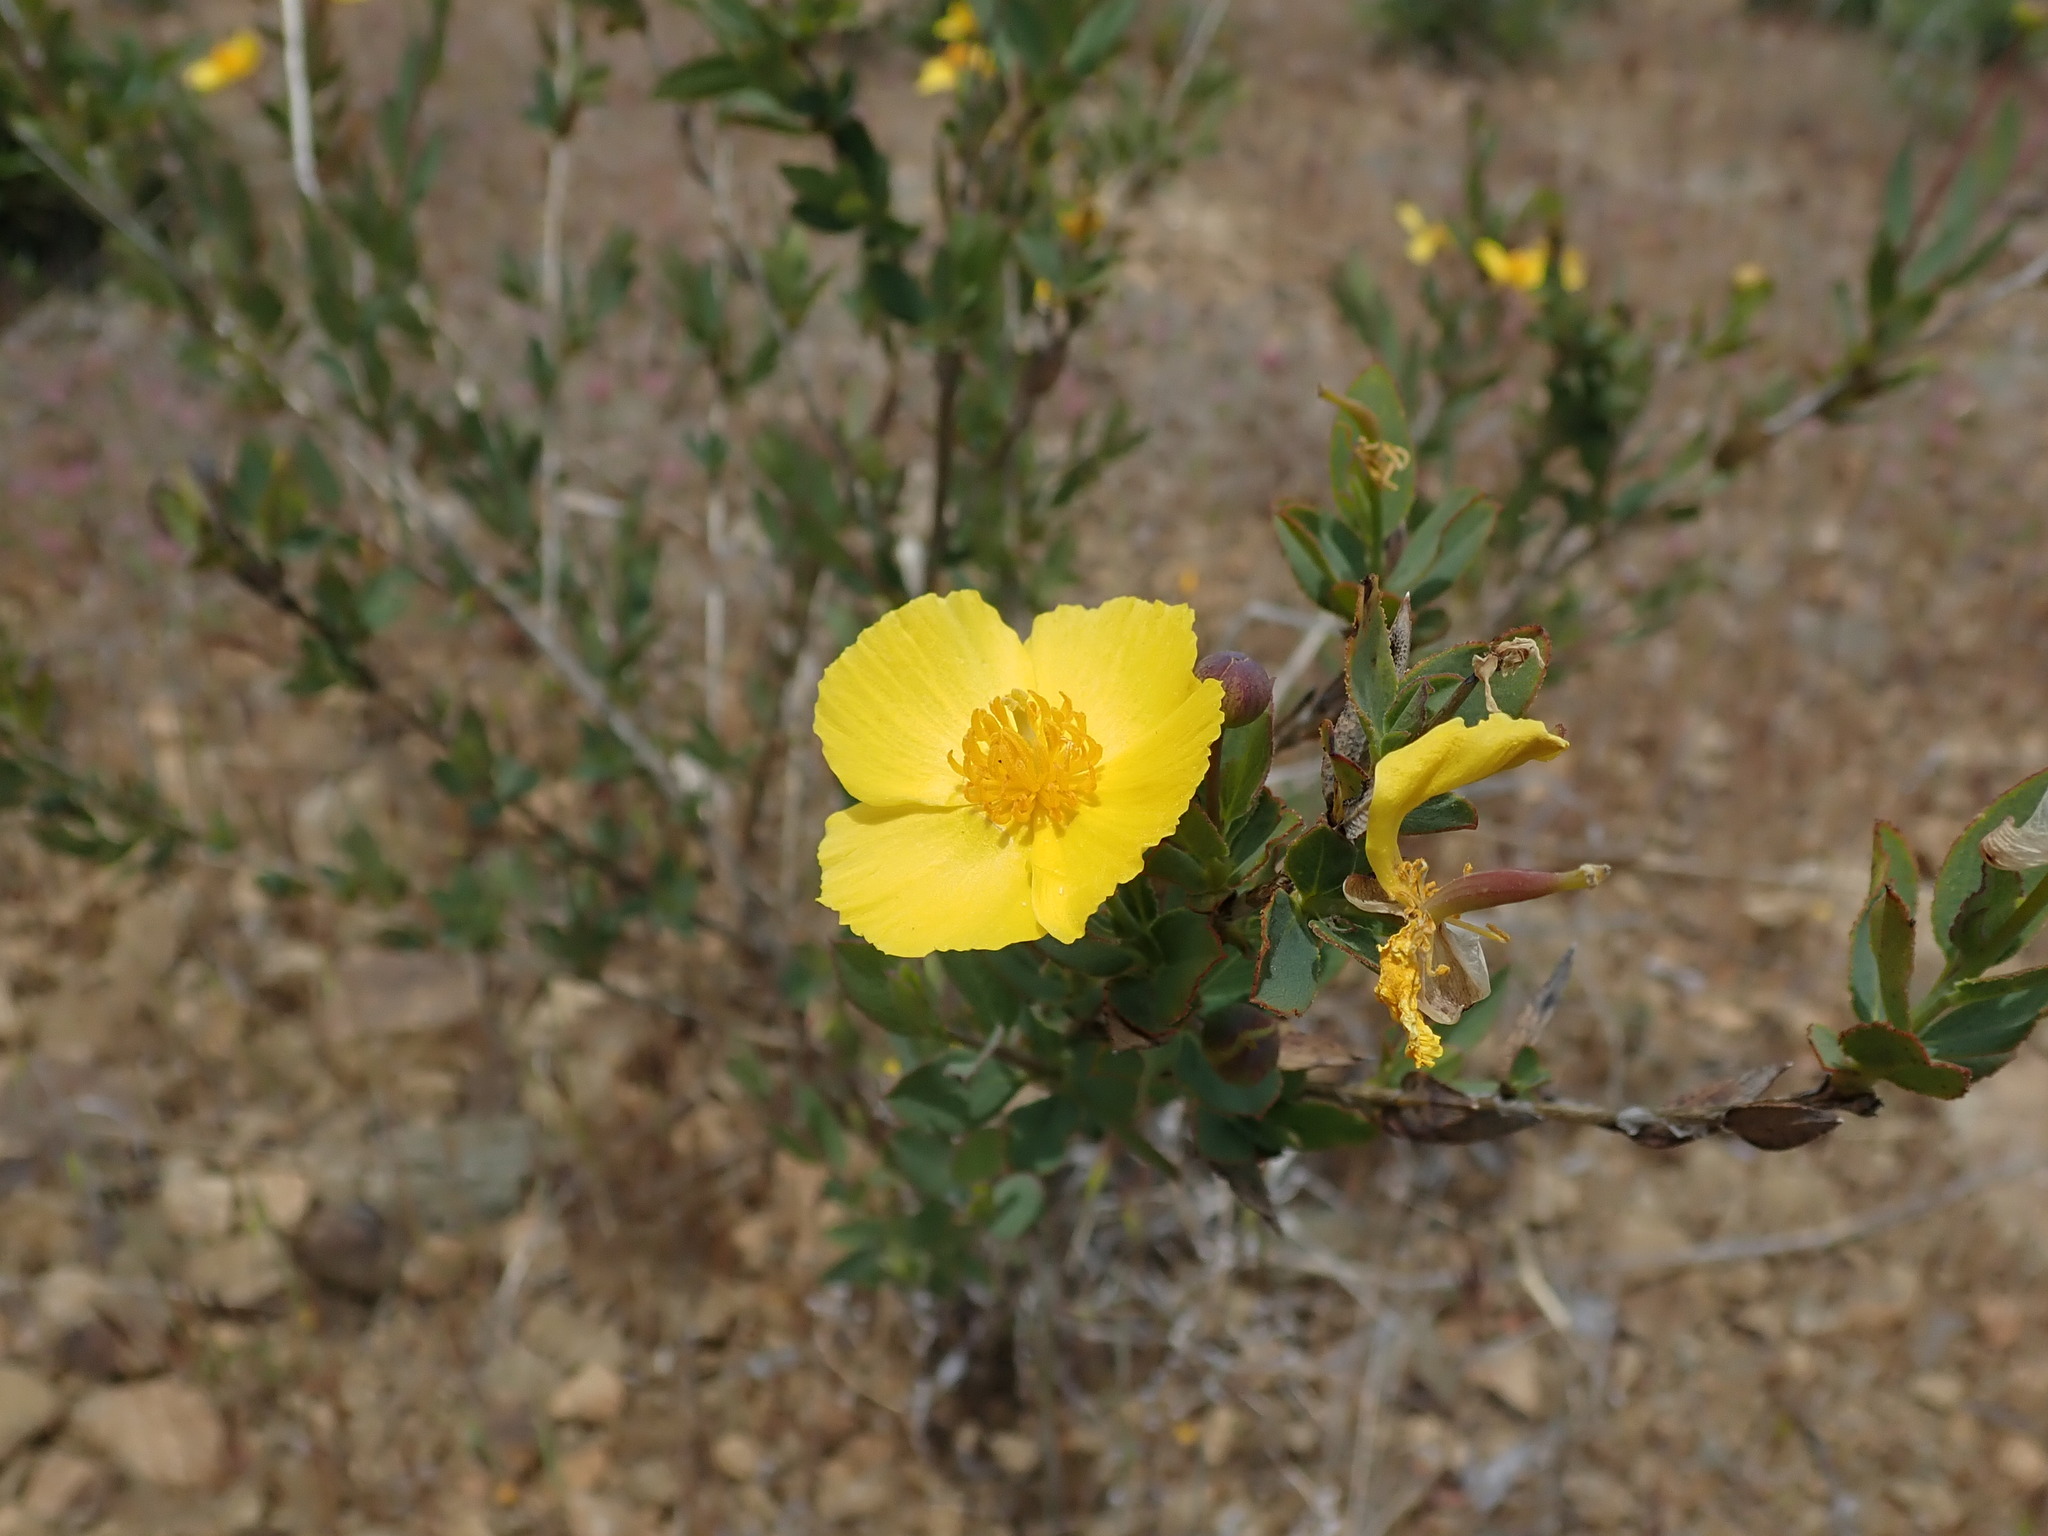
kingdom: Plantae
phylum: Tracheophyta
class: Magnoliopsida
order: Ranunculales
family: Papaveraceae
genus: Dendromecon
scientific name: Dendromecon rigida
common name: Tree poppy
